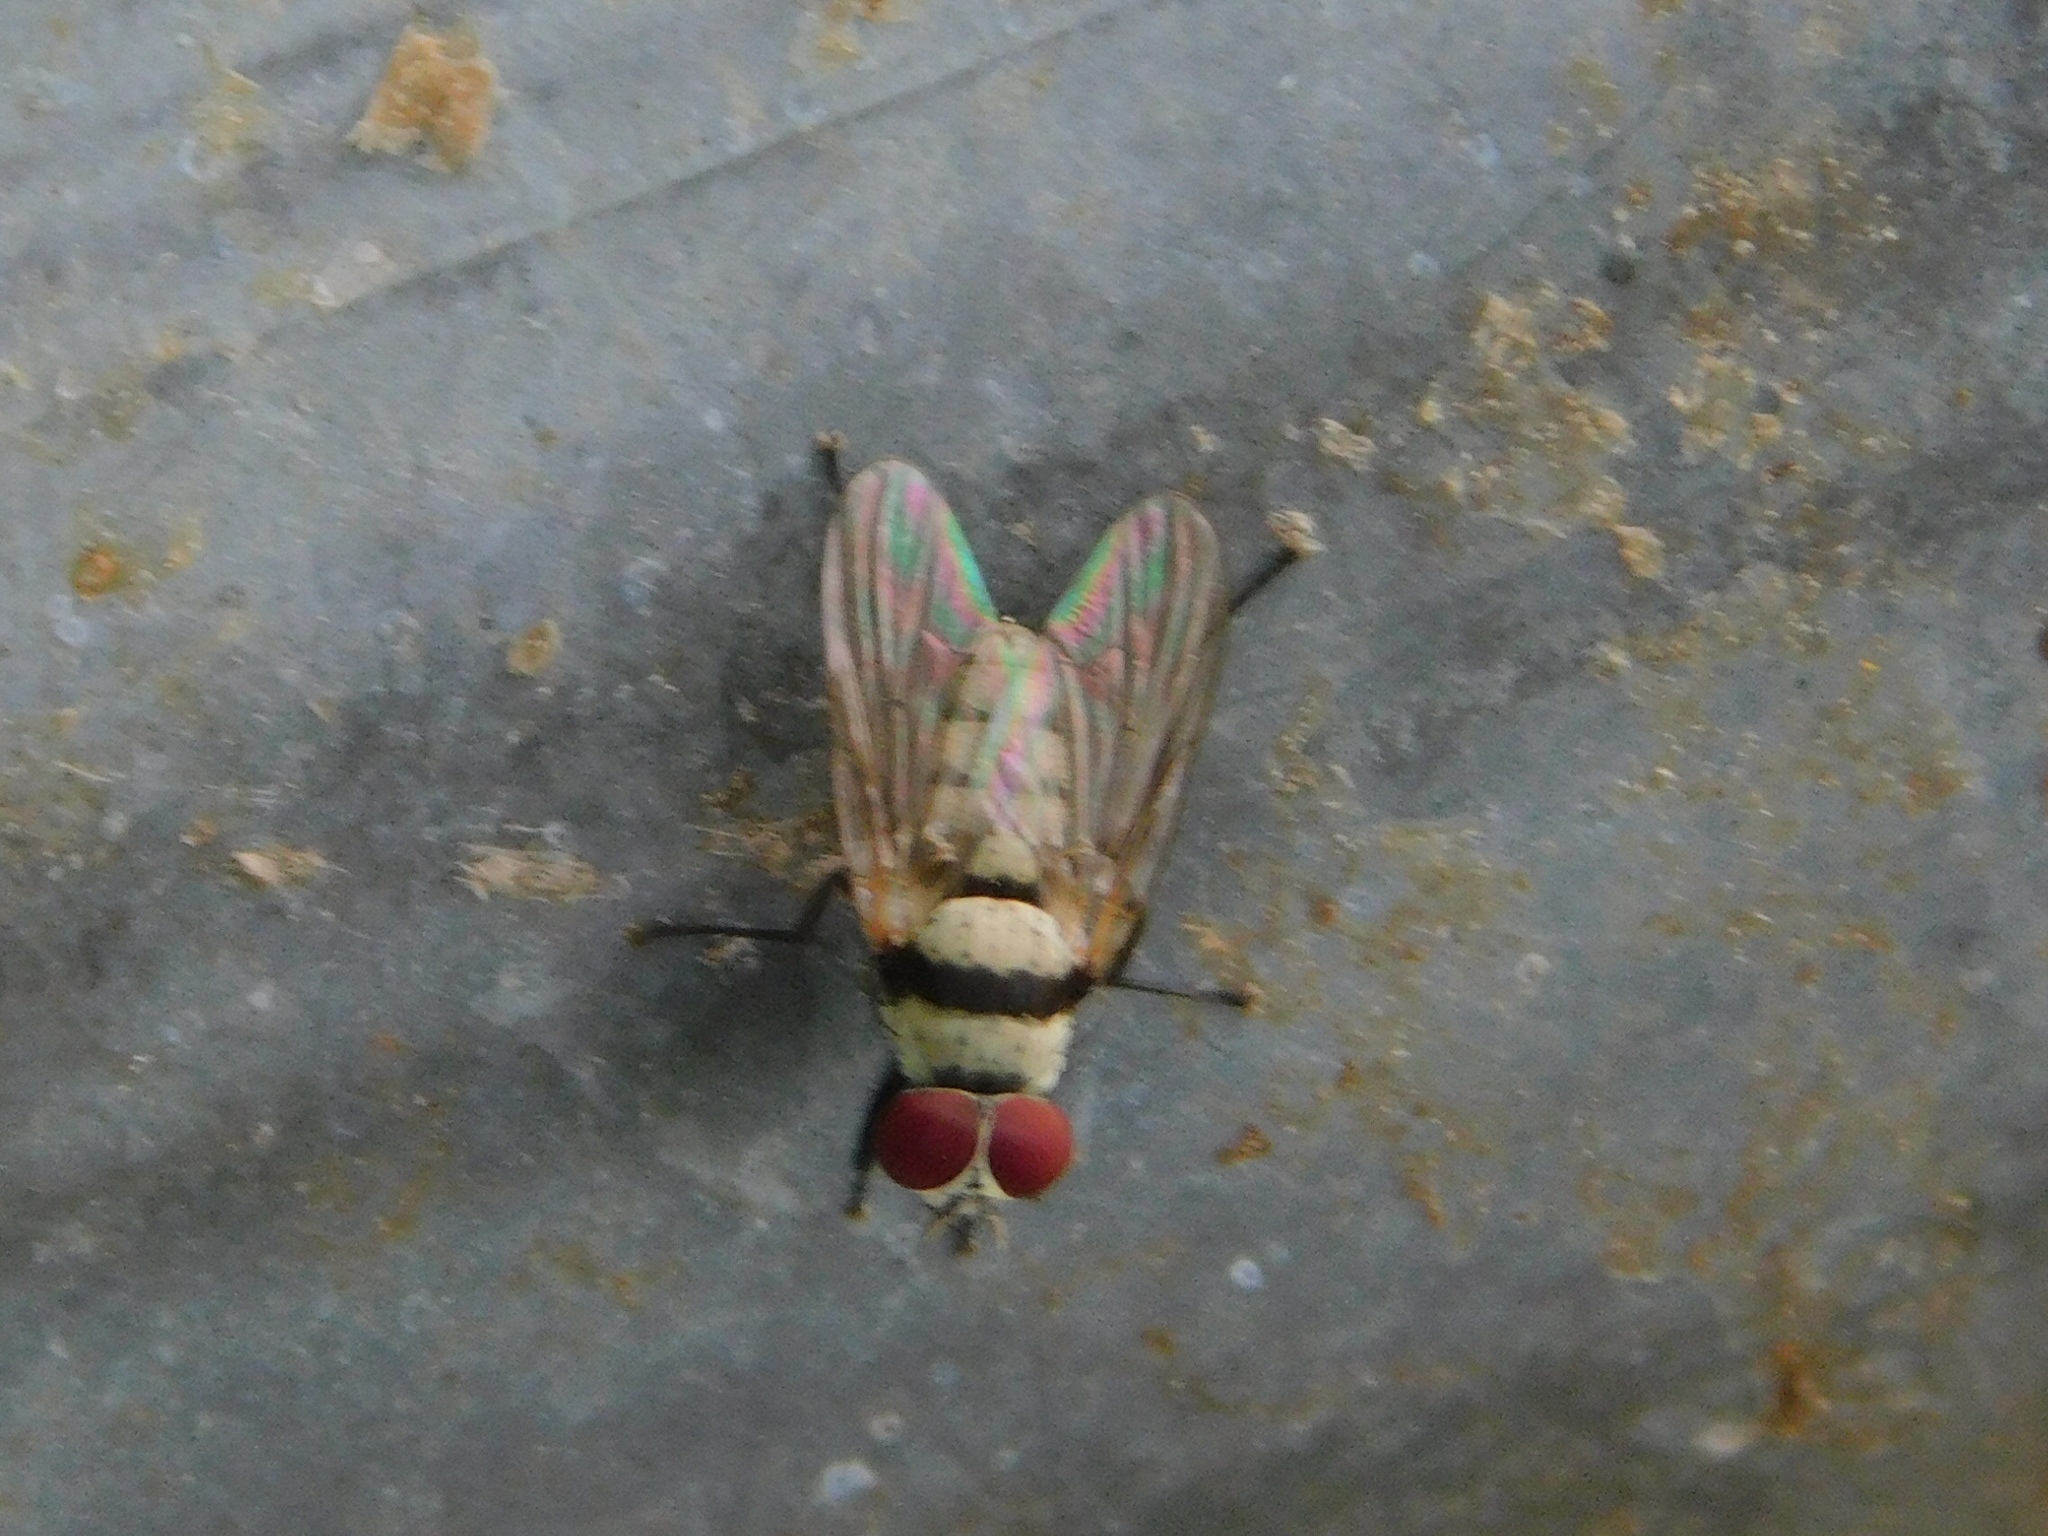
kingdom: Animalia
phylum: Arthropoda
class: Insecta
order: Diptera
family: Anthomyiidae
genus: Anthomyia
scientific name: Anthomyia illocata
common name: Fly
